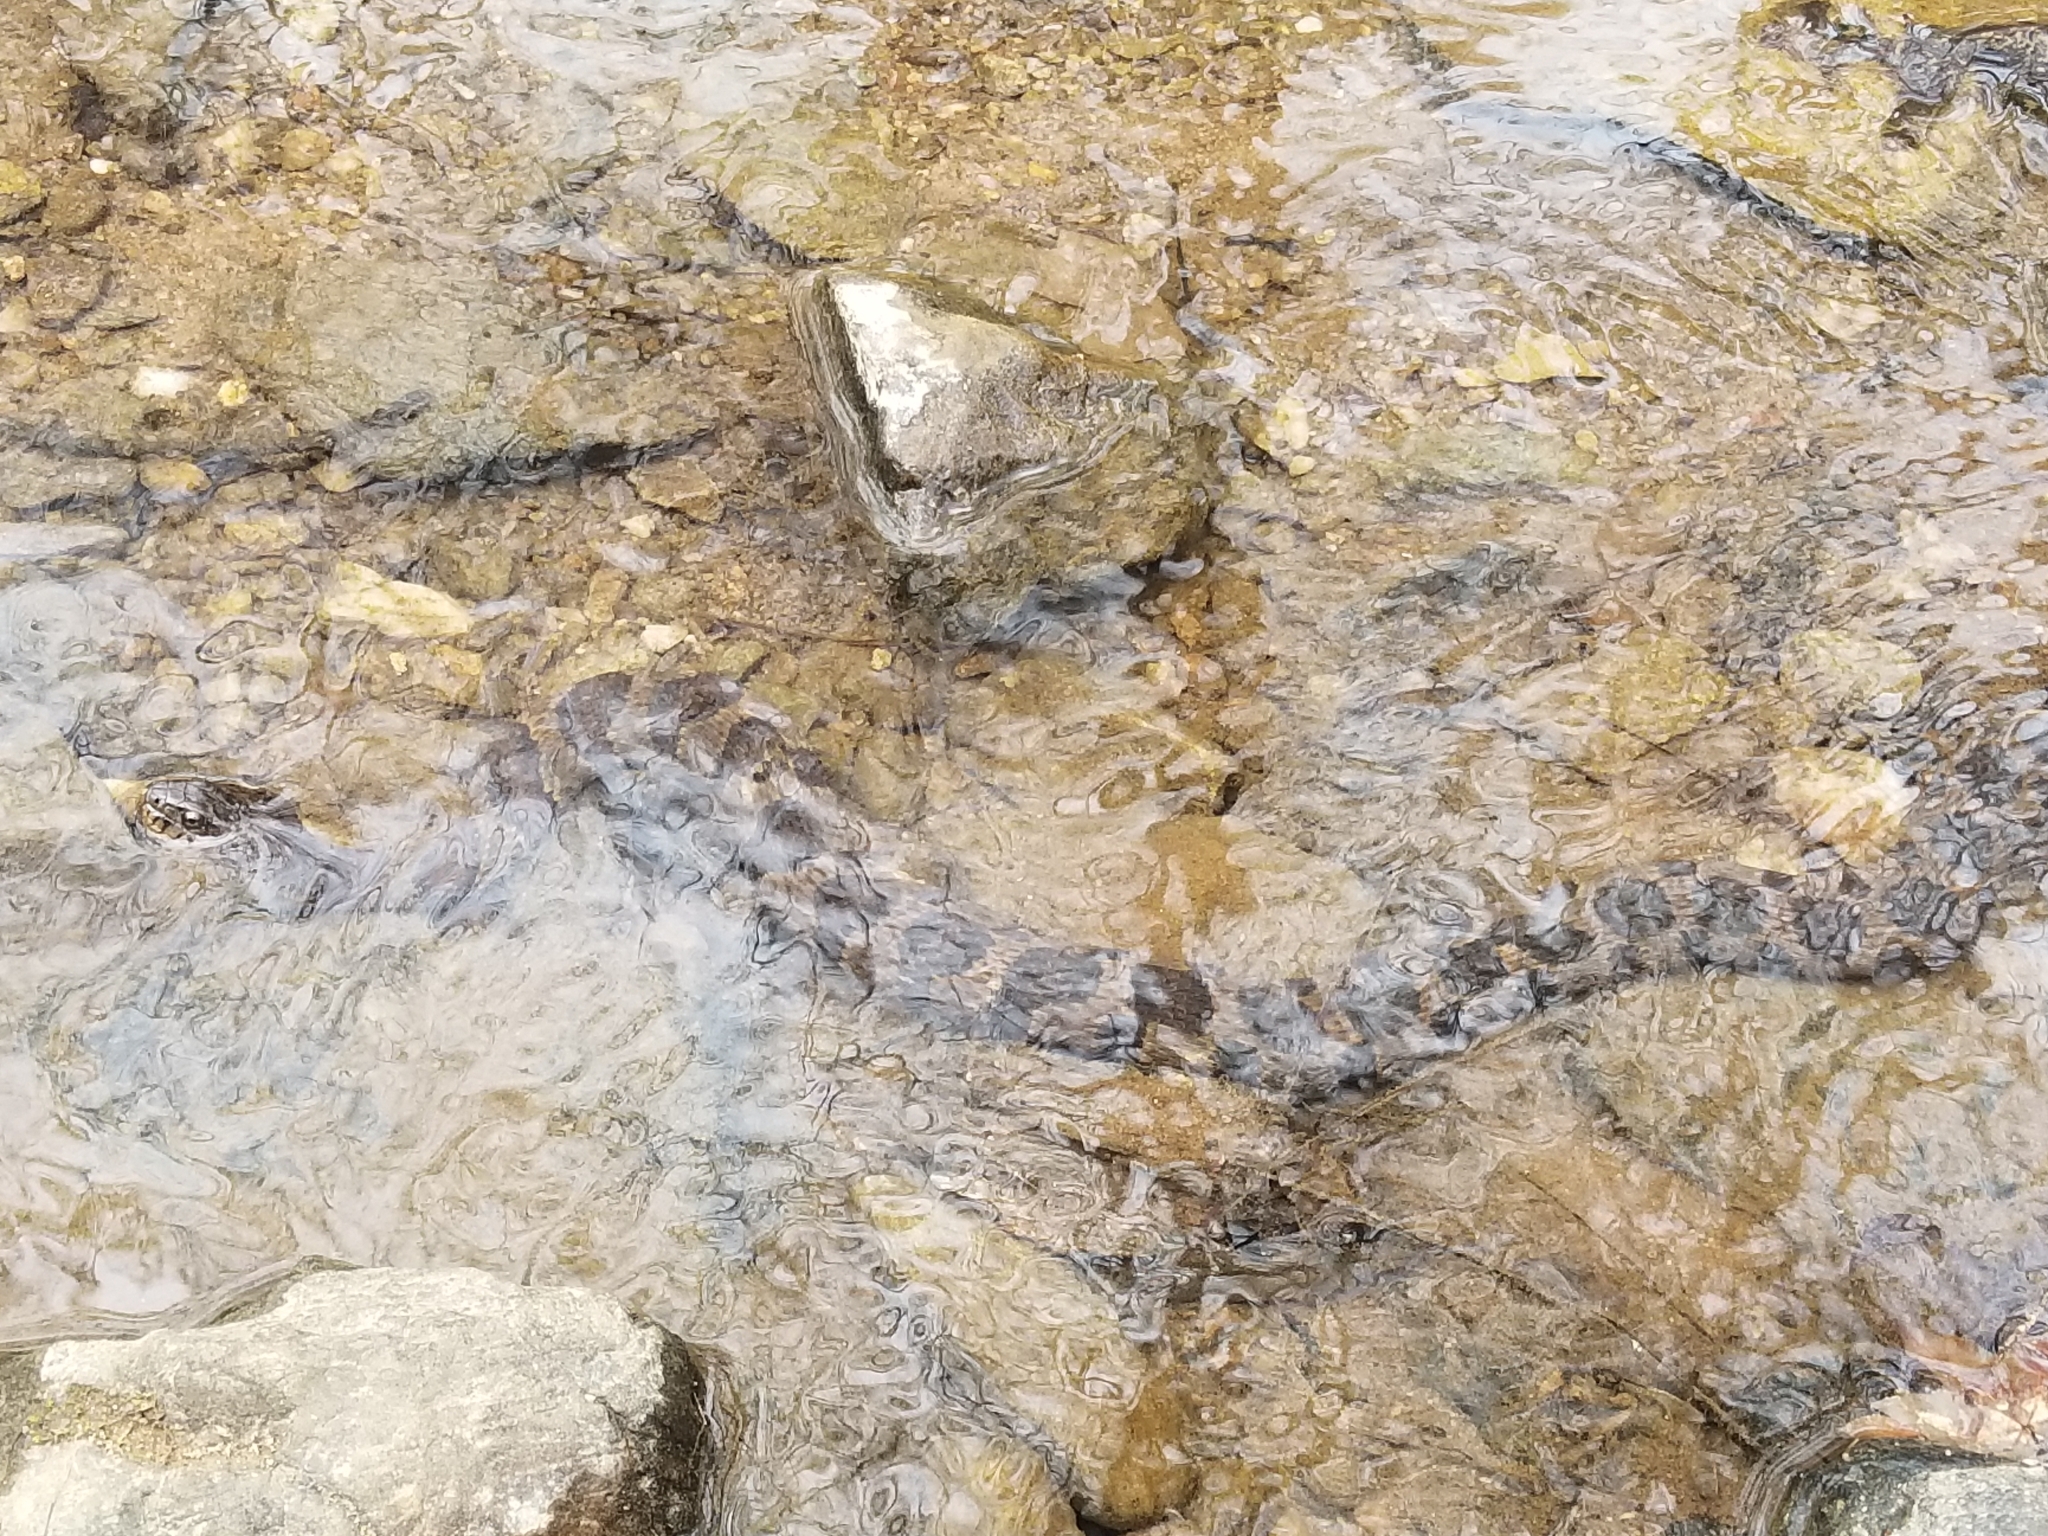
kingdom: Animalia
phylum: Chordata
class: Squamata
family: Colubridae
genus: Nerodia
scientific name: Nerodia sipedon
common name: Northern water snake
